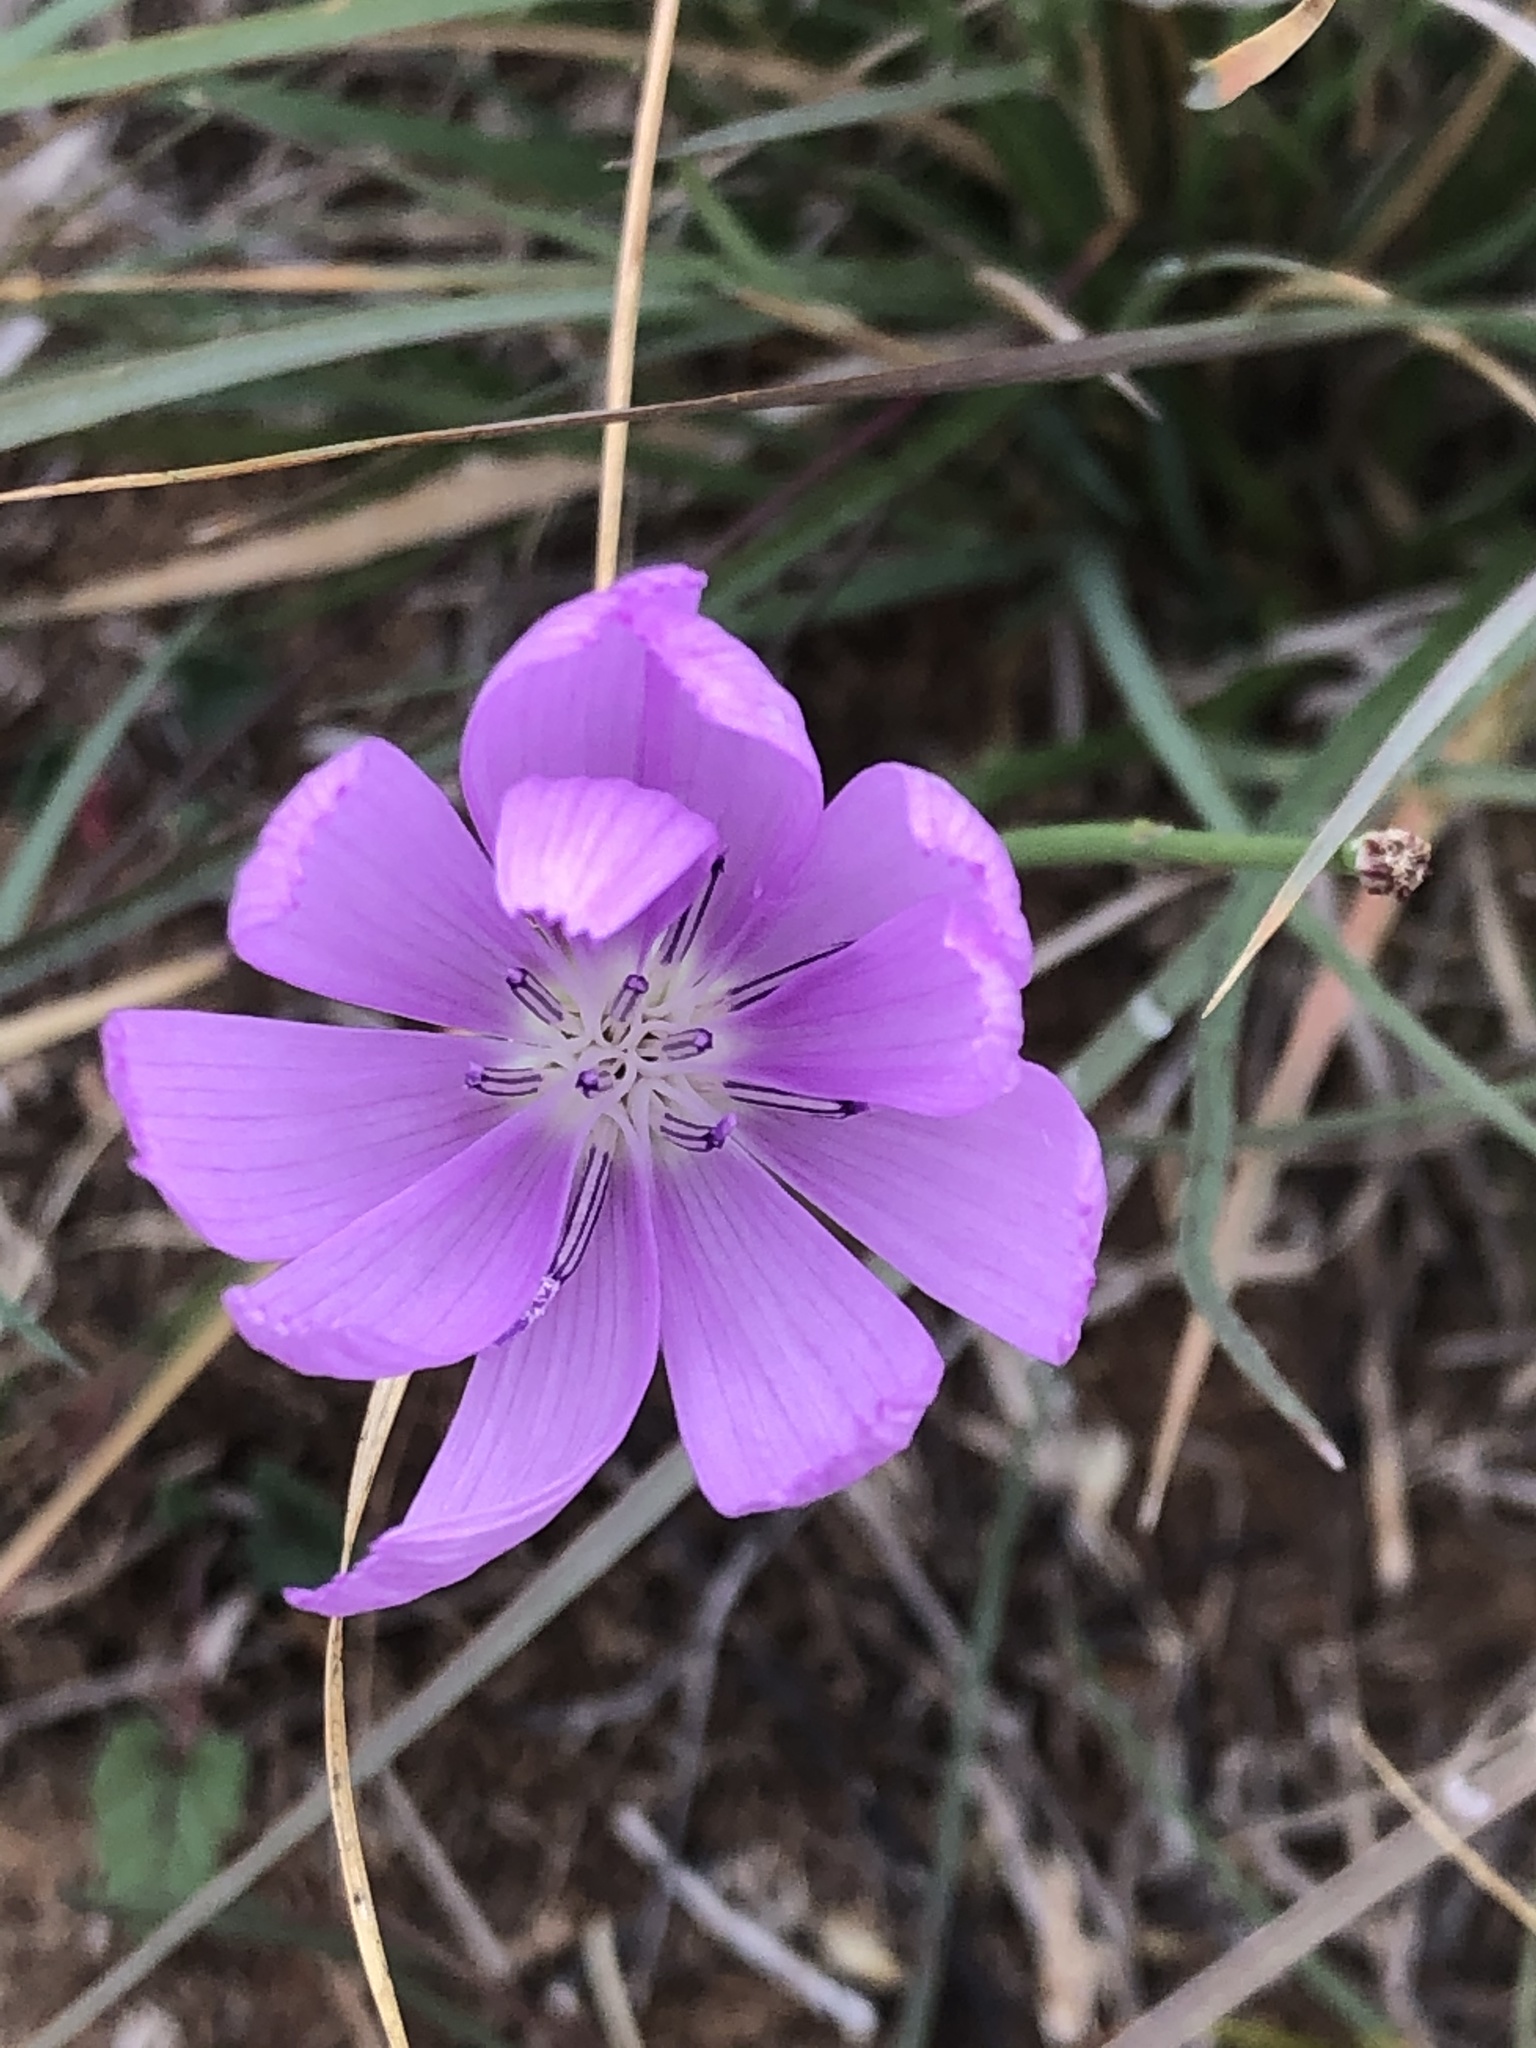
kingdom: Plantae
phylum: Tracheophyta
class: Magnoliopsida
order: Asterales
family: Asteraceae
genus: Lygodesmia
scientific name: Lygodesmia texana
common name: Texas skeleton-plant
